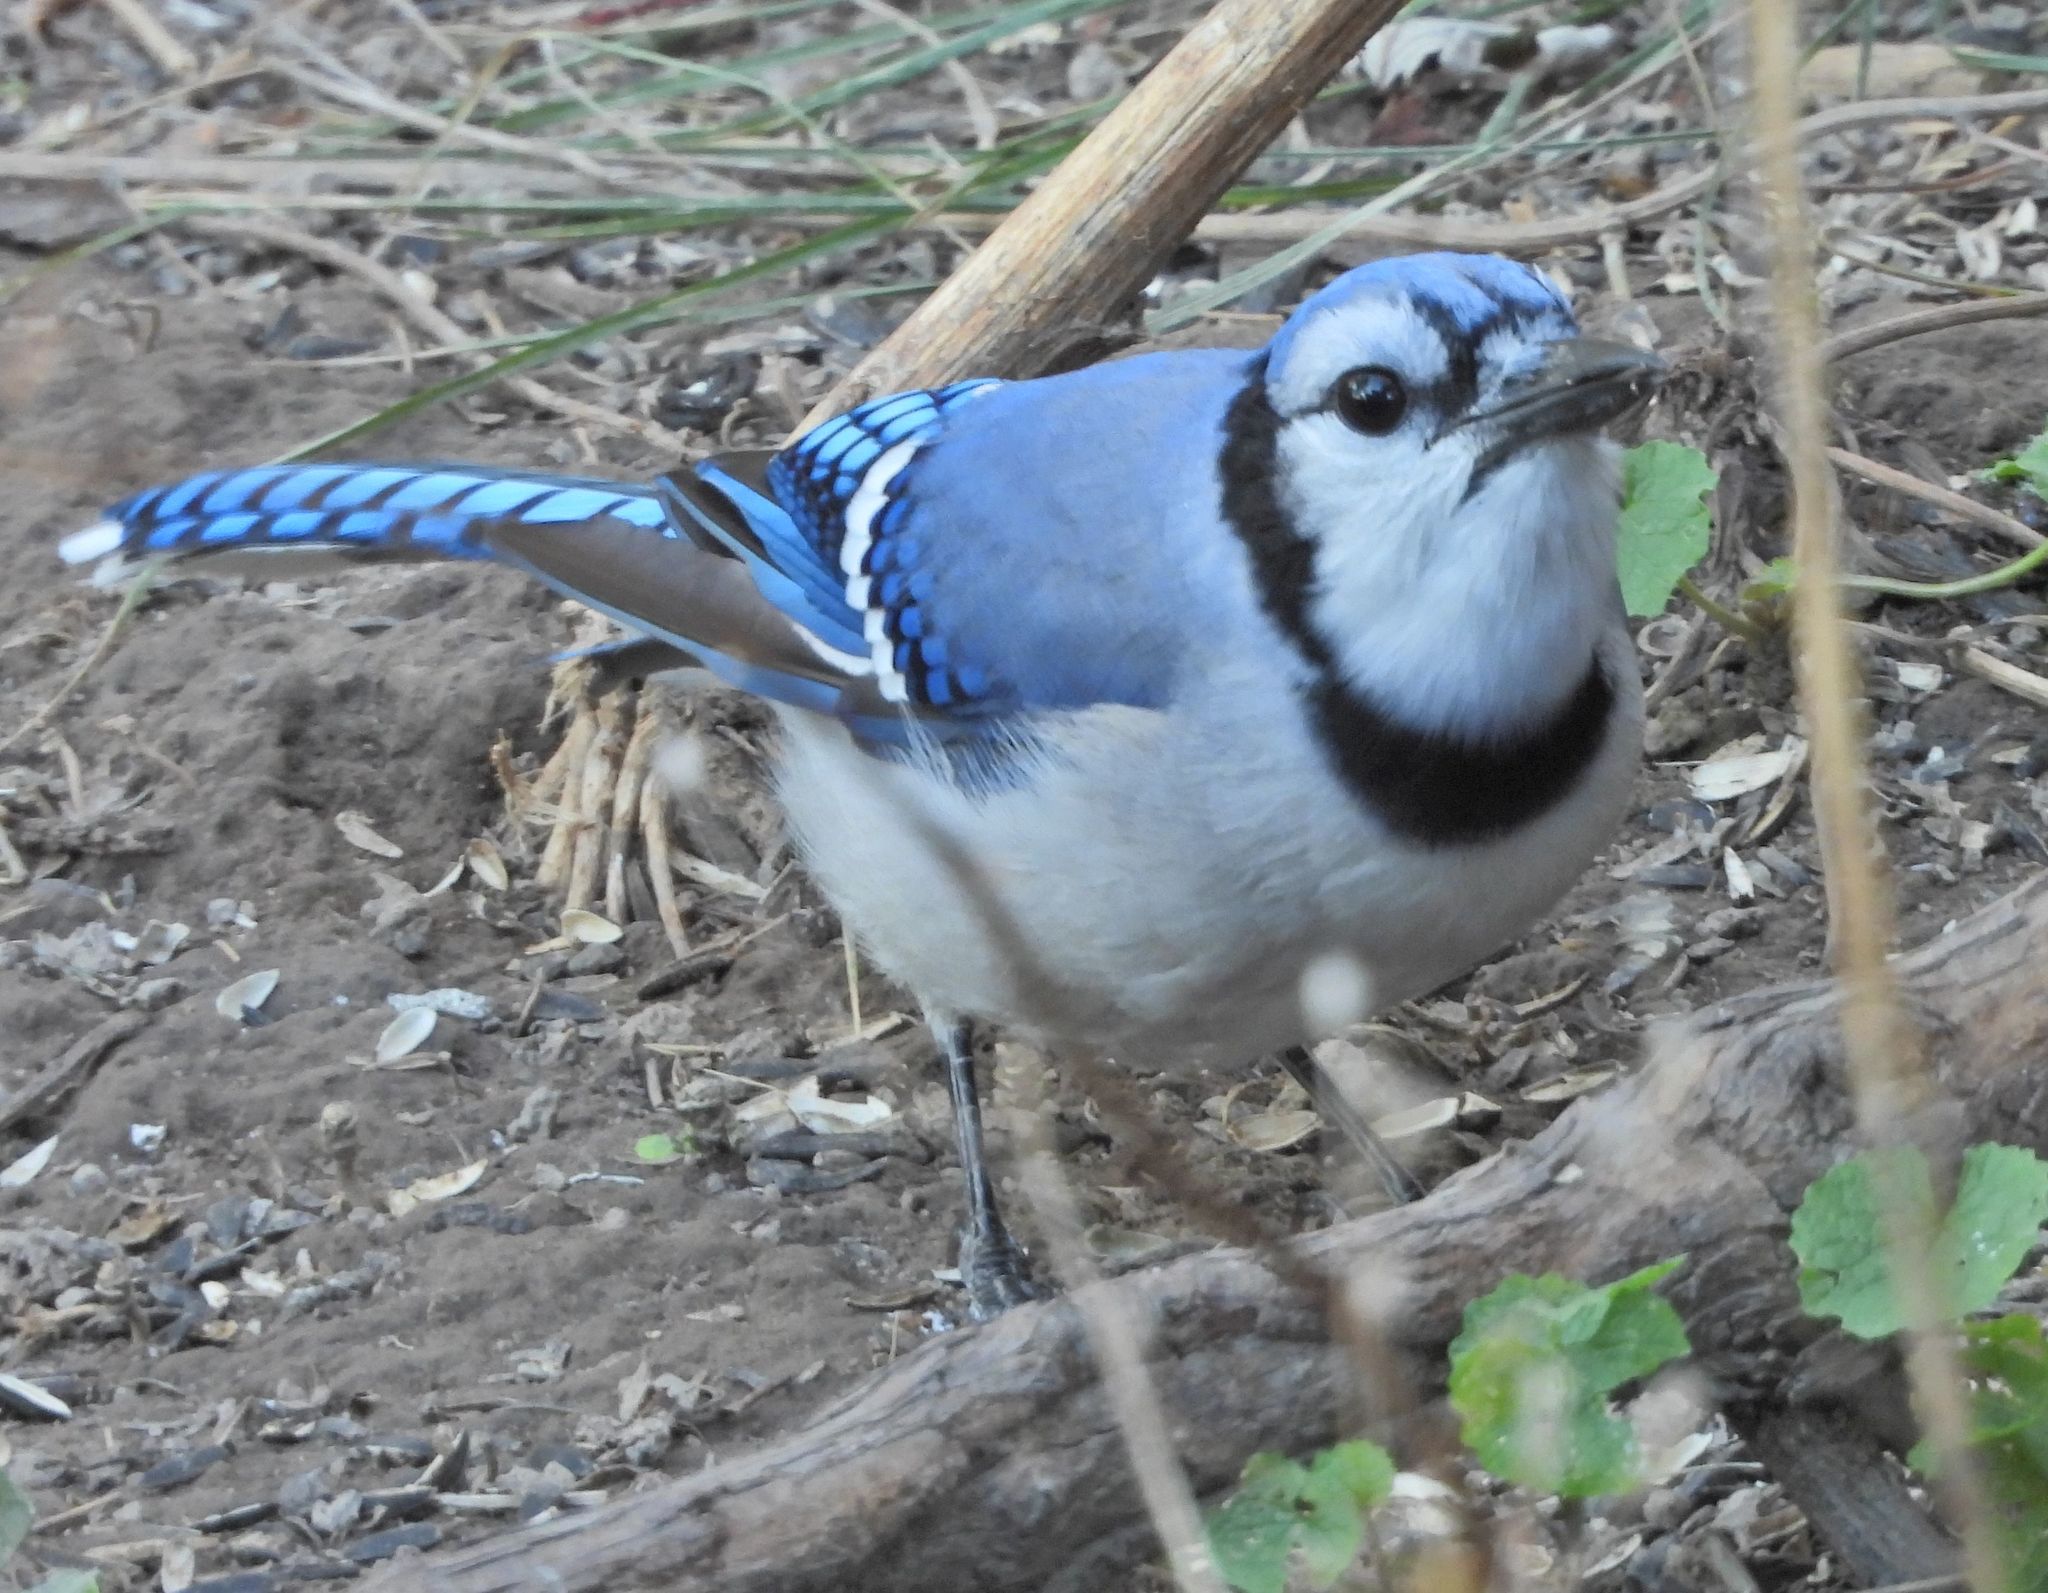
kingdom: Animalia
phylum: Chordata
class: Aves
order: Passeriformes
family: Corvidae
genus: Cyanocitta
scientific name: Cyanocitta cristata
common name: Blue jay
